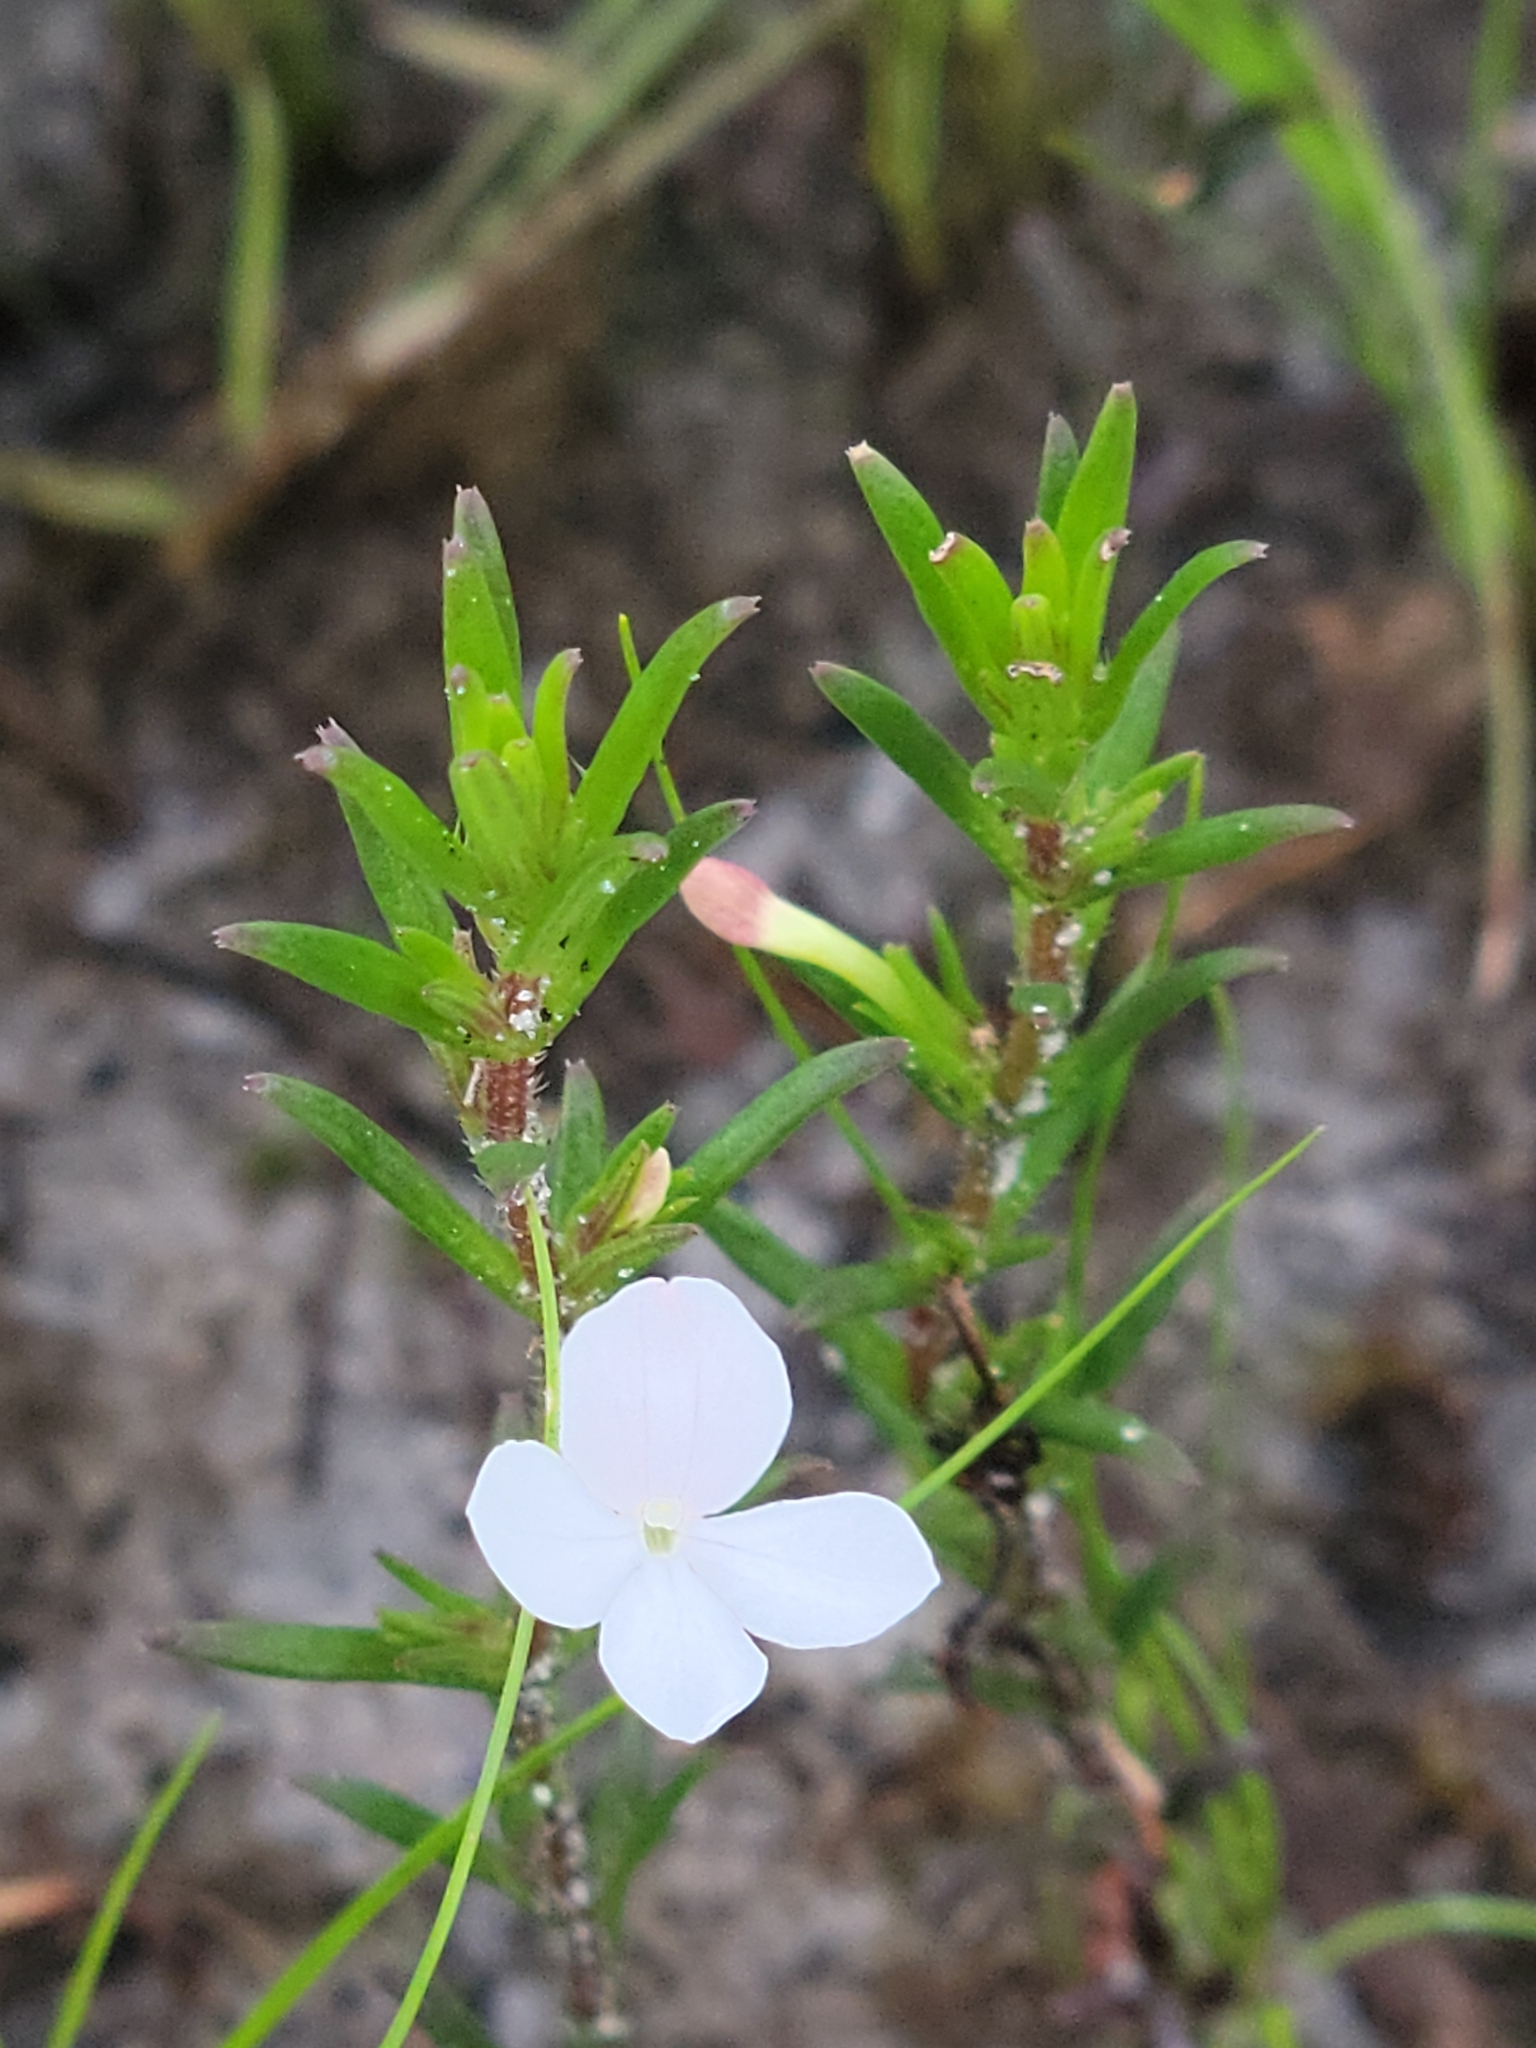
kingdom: Plantae
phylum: Tracheophyta
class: Magnoliopsida
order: Lamiales
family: Plantaginaceae
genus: Gratiola
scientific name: Gratiola hispida
